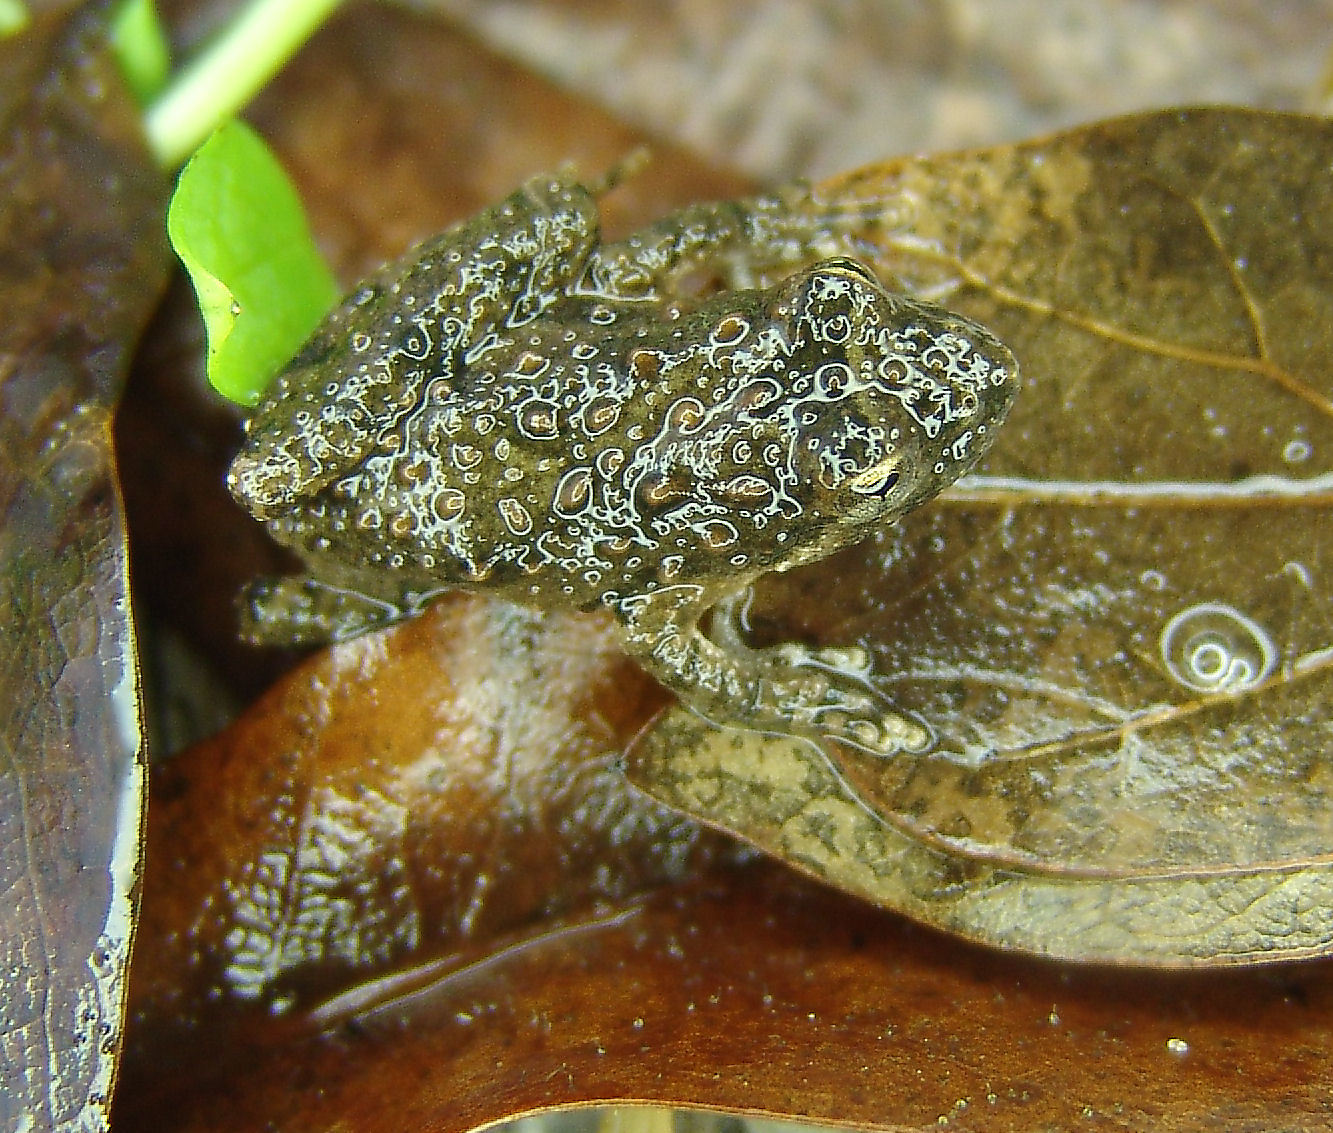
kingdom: Animalia
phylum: Chordata
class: Amphibia
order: Anura
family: Hylidae
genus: Acris
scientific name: Acris blanchardi
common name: Blanchard's cricket frog
